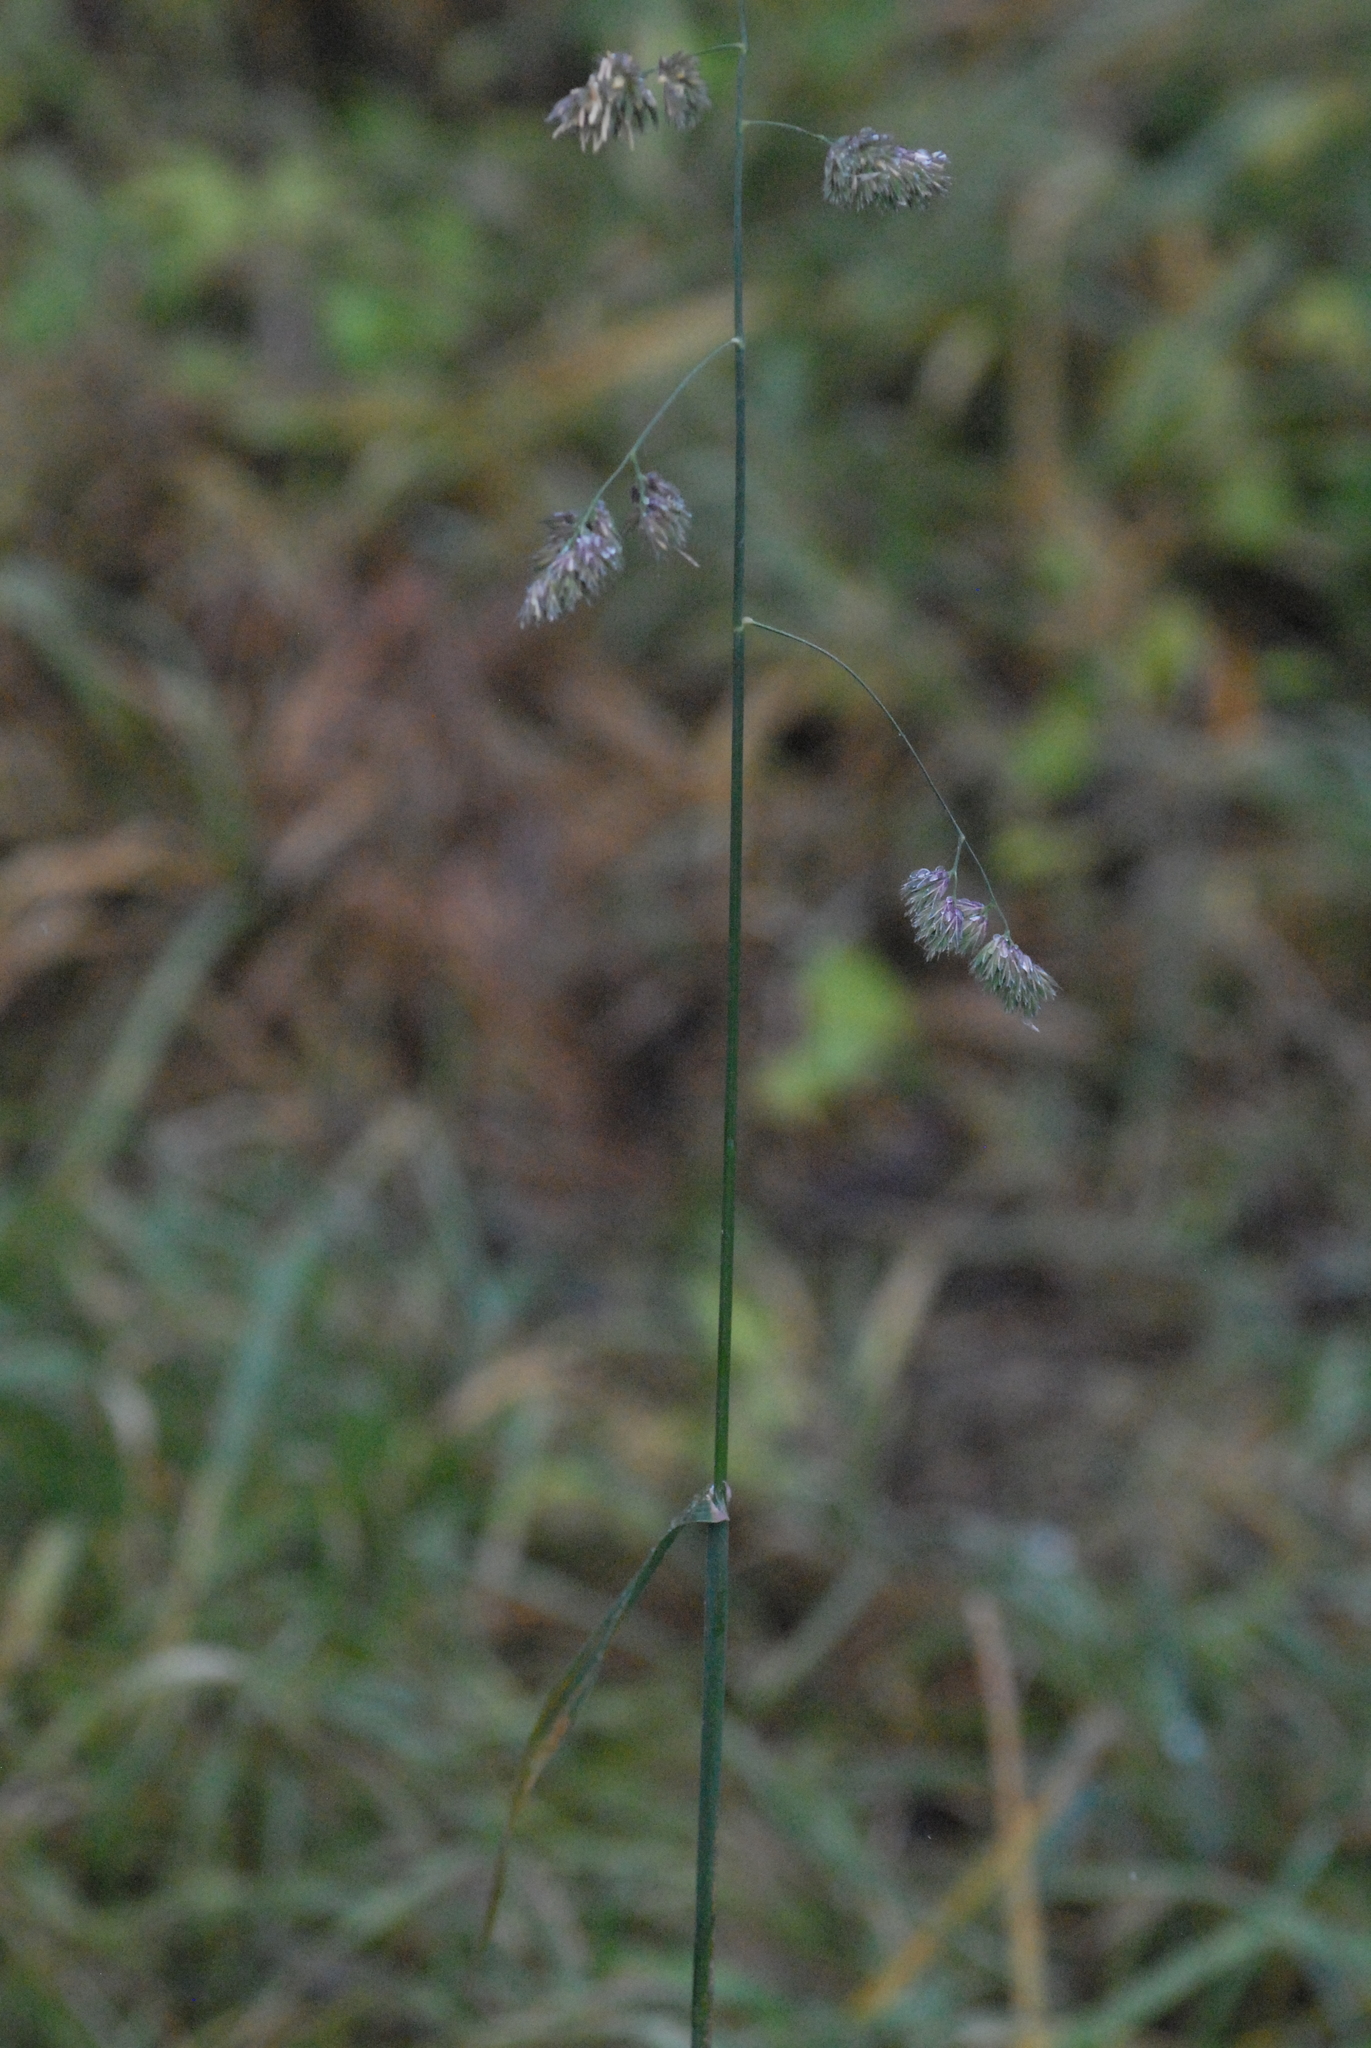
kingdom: Plantae
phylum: Tracheophyta
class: Liliopsida
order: Poales
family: Poaceae
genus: Dactylis
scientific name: Dactylis glomerata
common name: Orchardgrass
